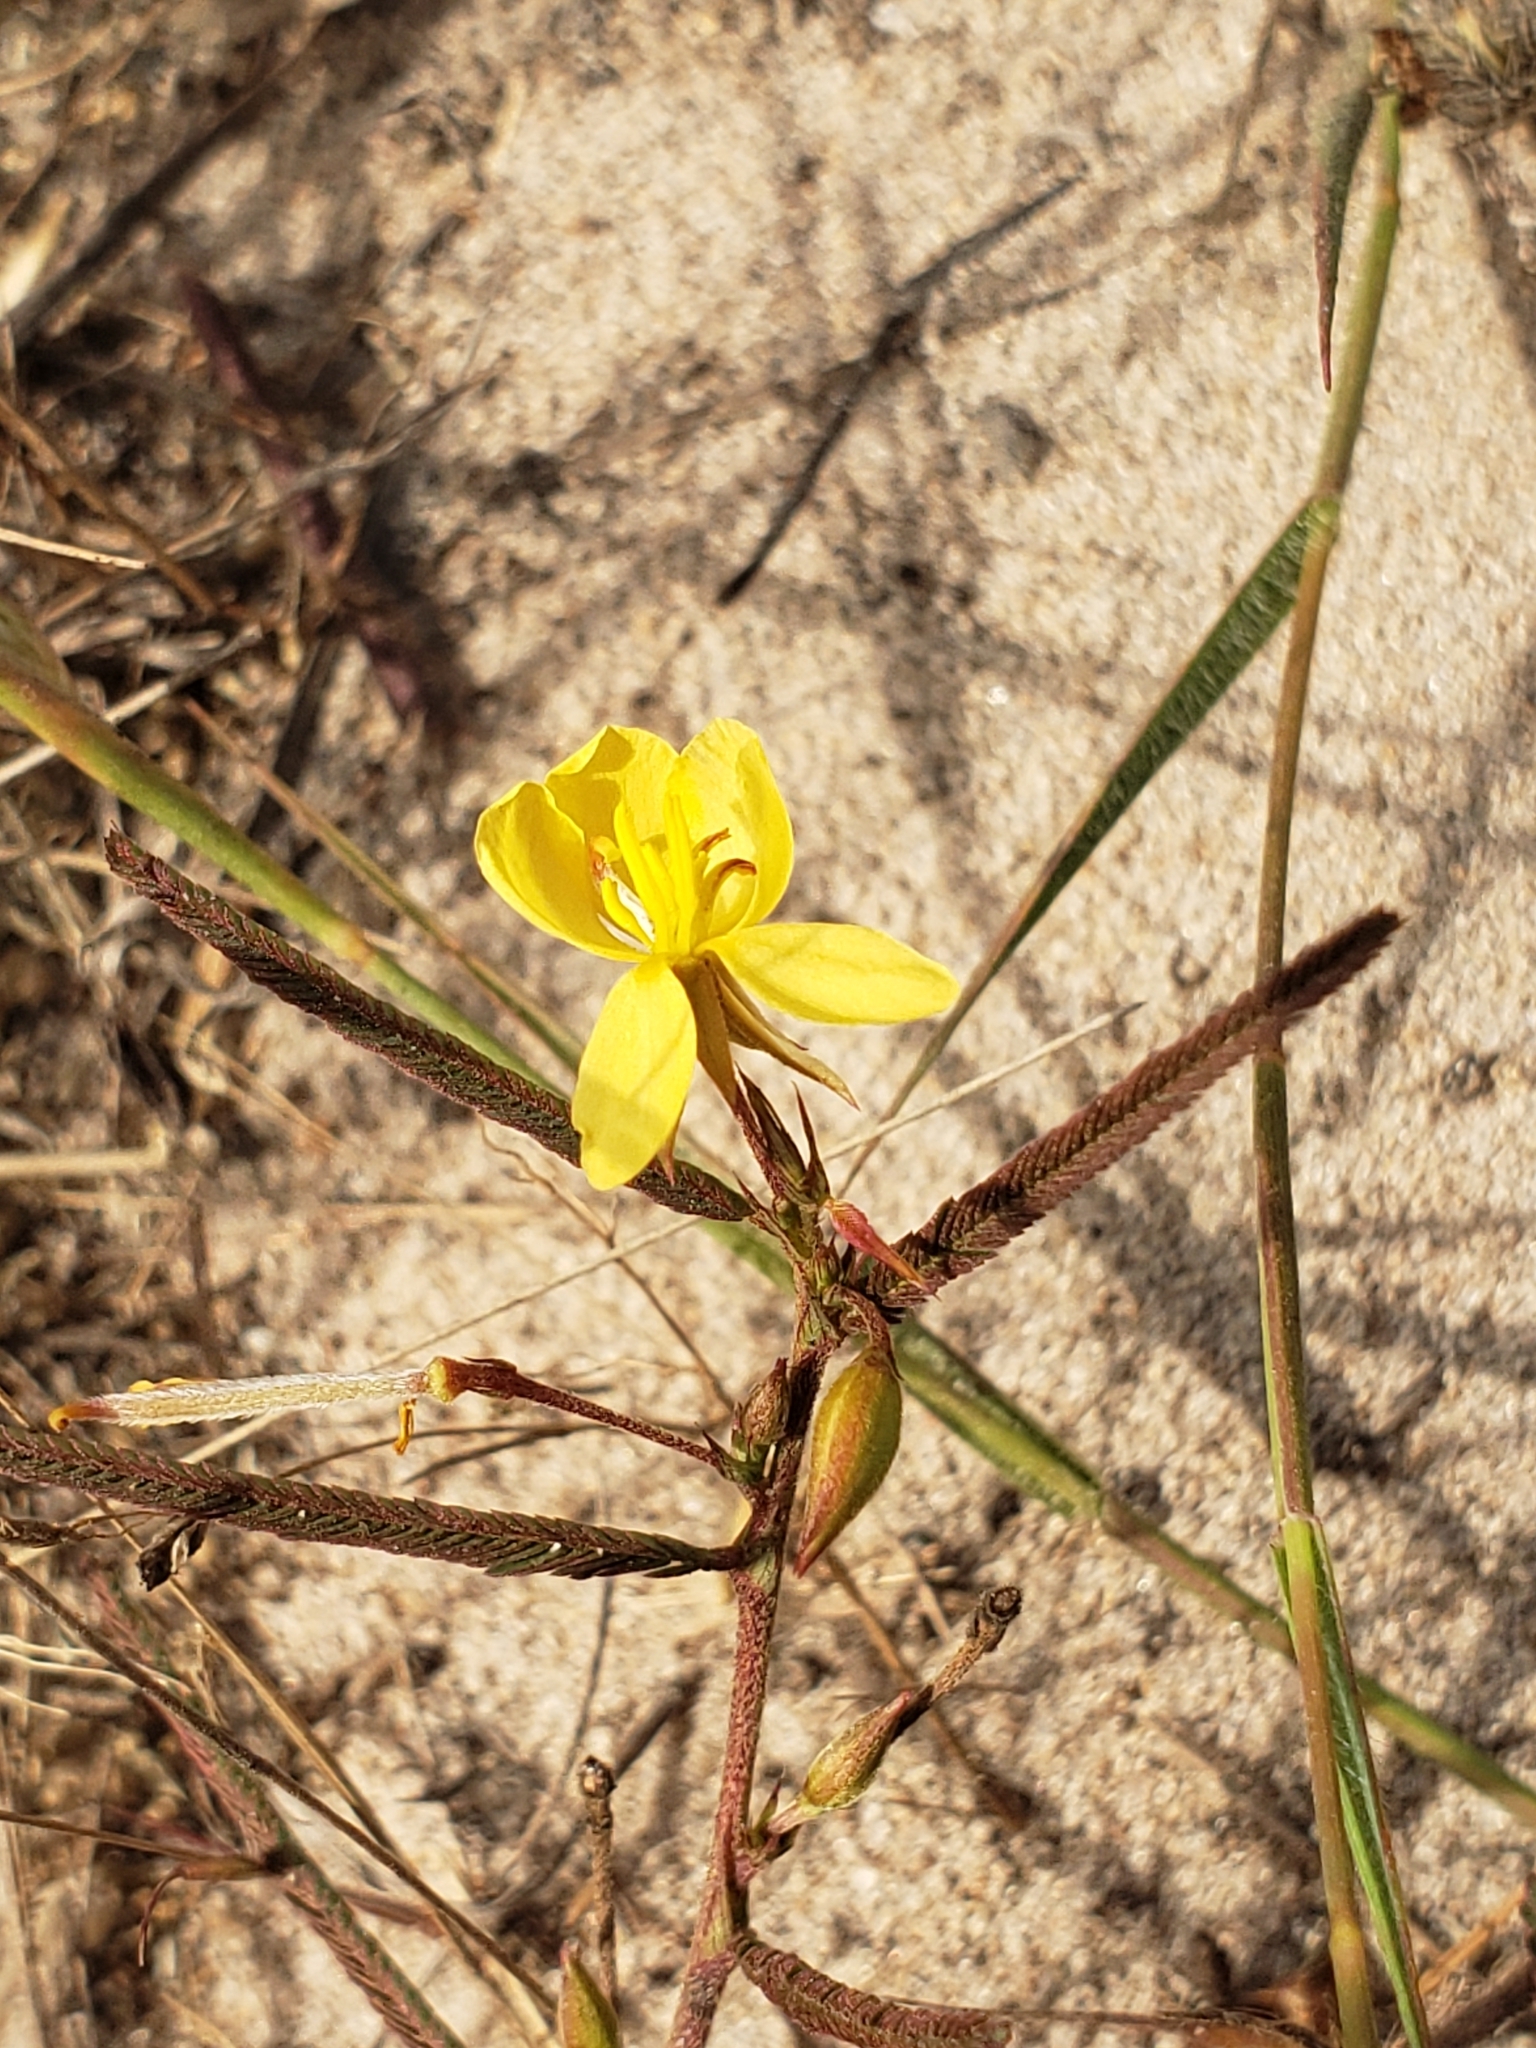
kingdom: Plantae
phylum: Tracheophyta
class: Magnoliopsida
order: Fabales
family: Fabaceae
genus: Chamaecrista
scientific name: Chamaecrista mimosoides
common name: Fish-bone cassia
